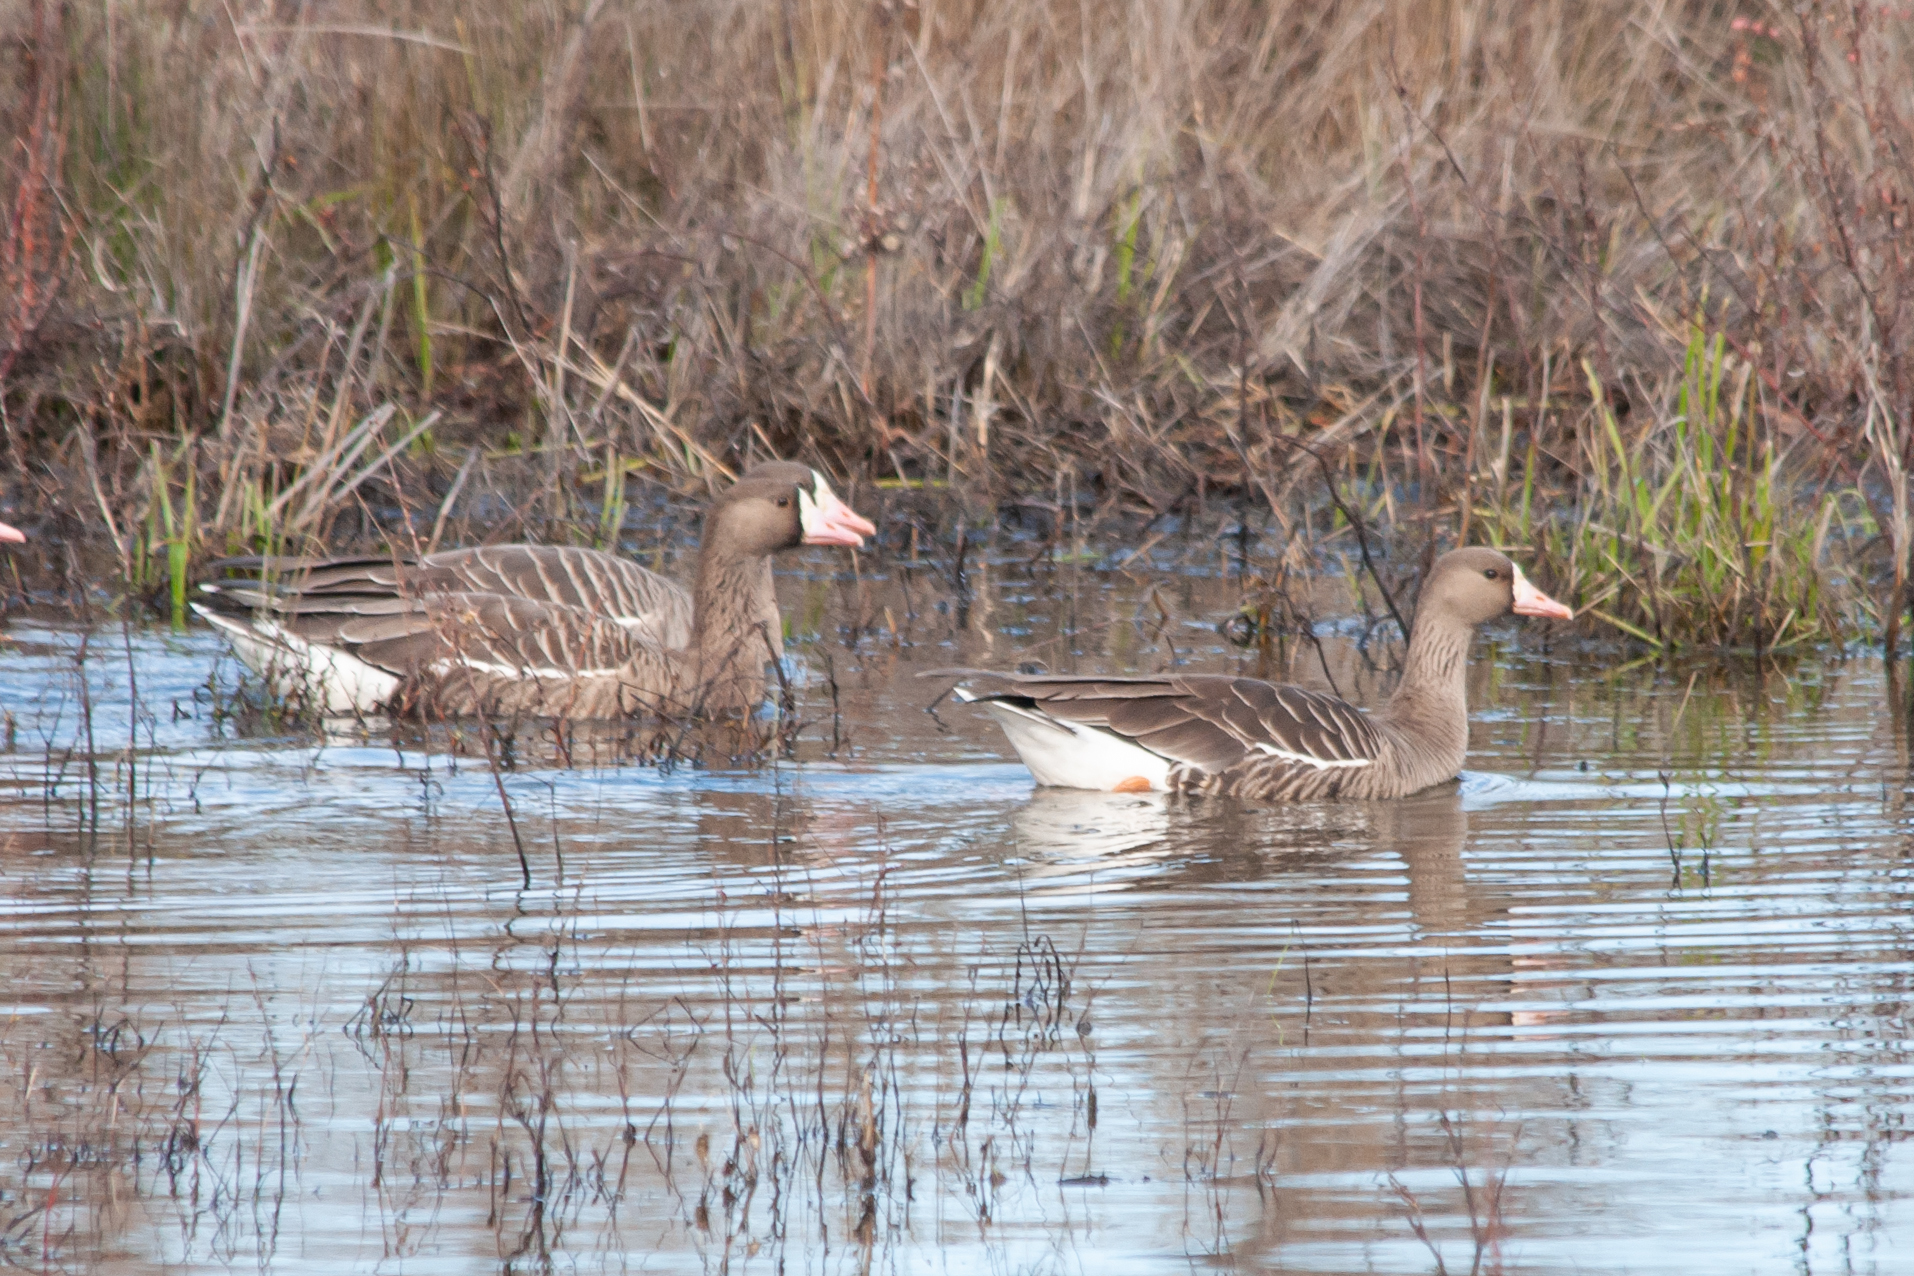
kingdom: Animalia
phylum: Chordata
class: Aves
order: Anseriformes
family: Anatidae
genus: Anser
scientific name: Anser albifrons
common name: Greater white-fronted goose
